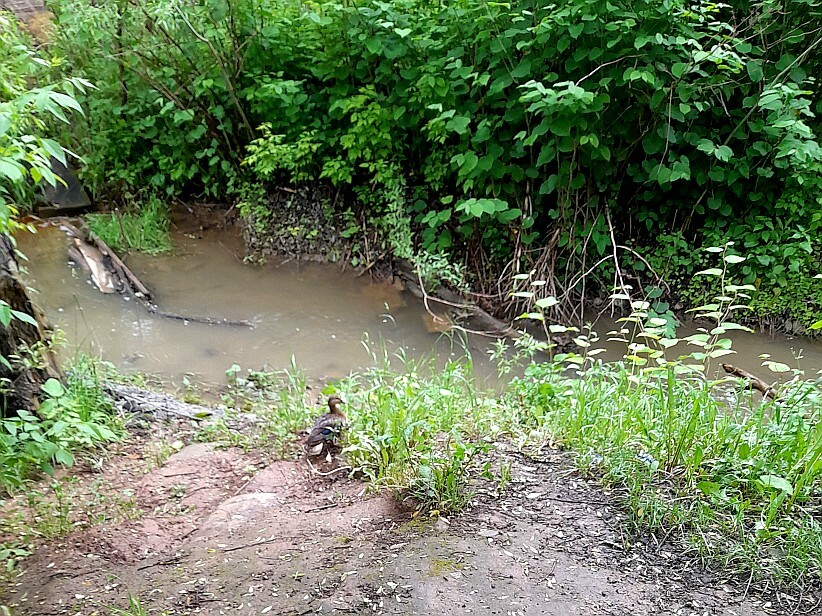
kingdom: Animalia
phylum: Chordata
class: Aves
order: Anseriformes
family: Anatidae
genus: Anas
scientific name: Anas platyrhynchos
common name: Mallard
